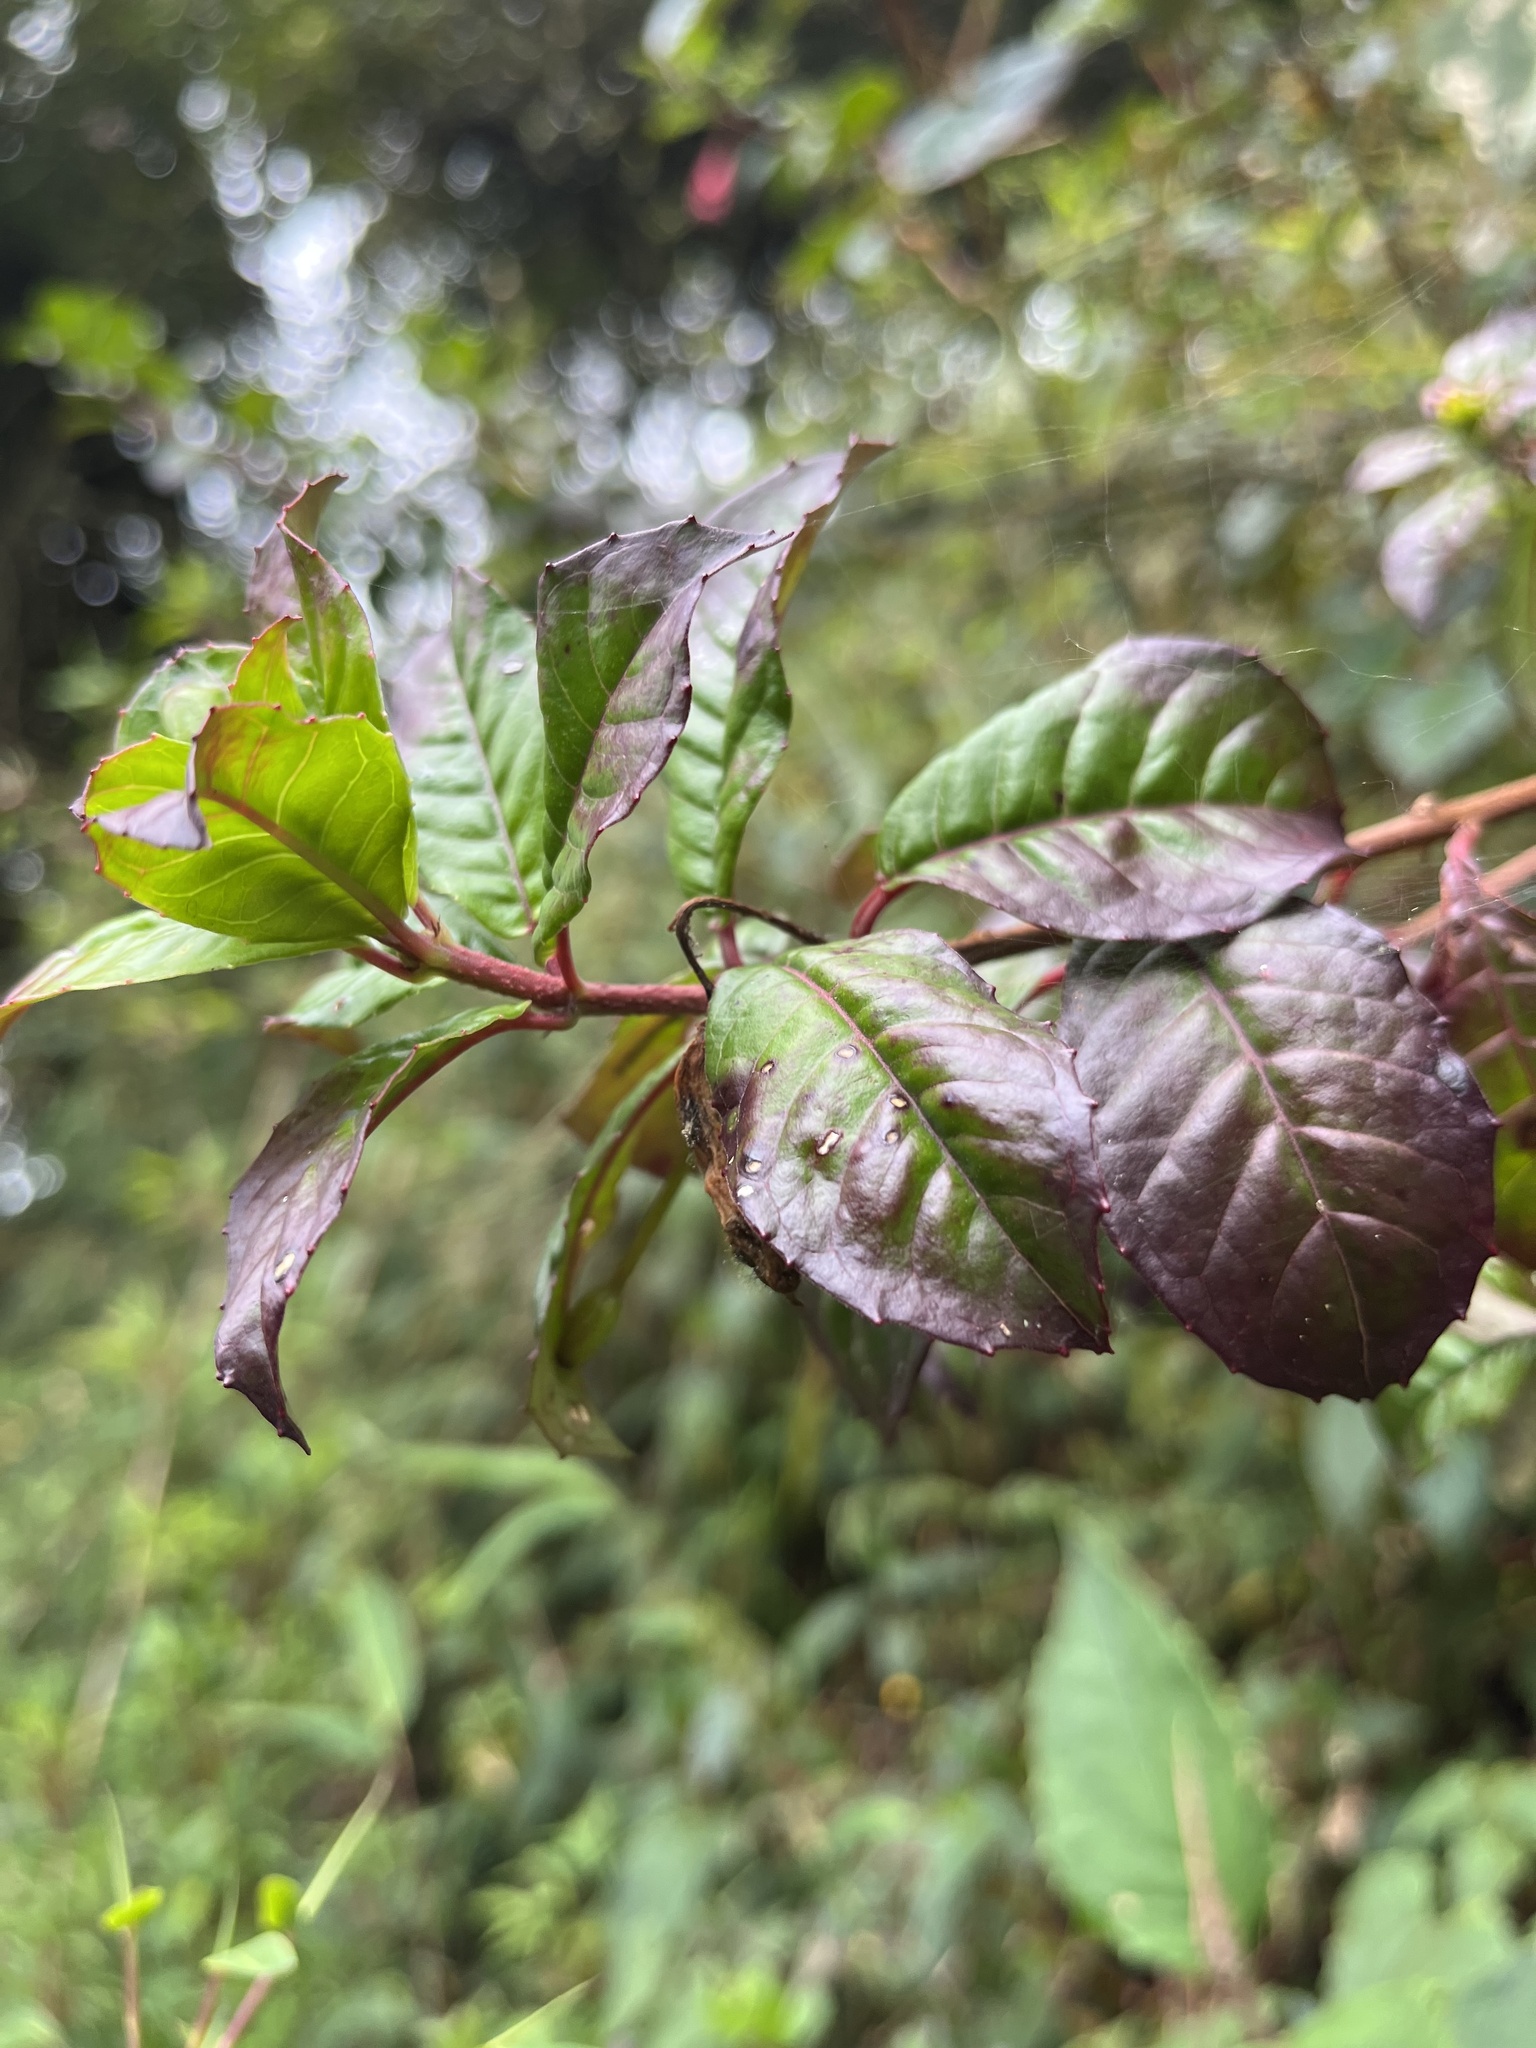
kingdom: Plantae
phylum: Tracheophyta
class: Magnoliopsida
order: Myrtales
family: Onagraceae
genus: Fuchsia
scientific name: Fuchsia petiolaris
